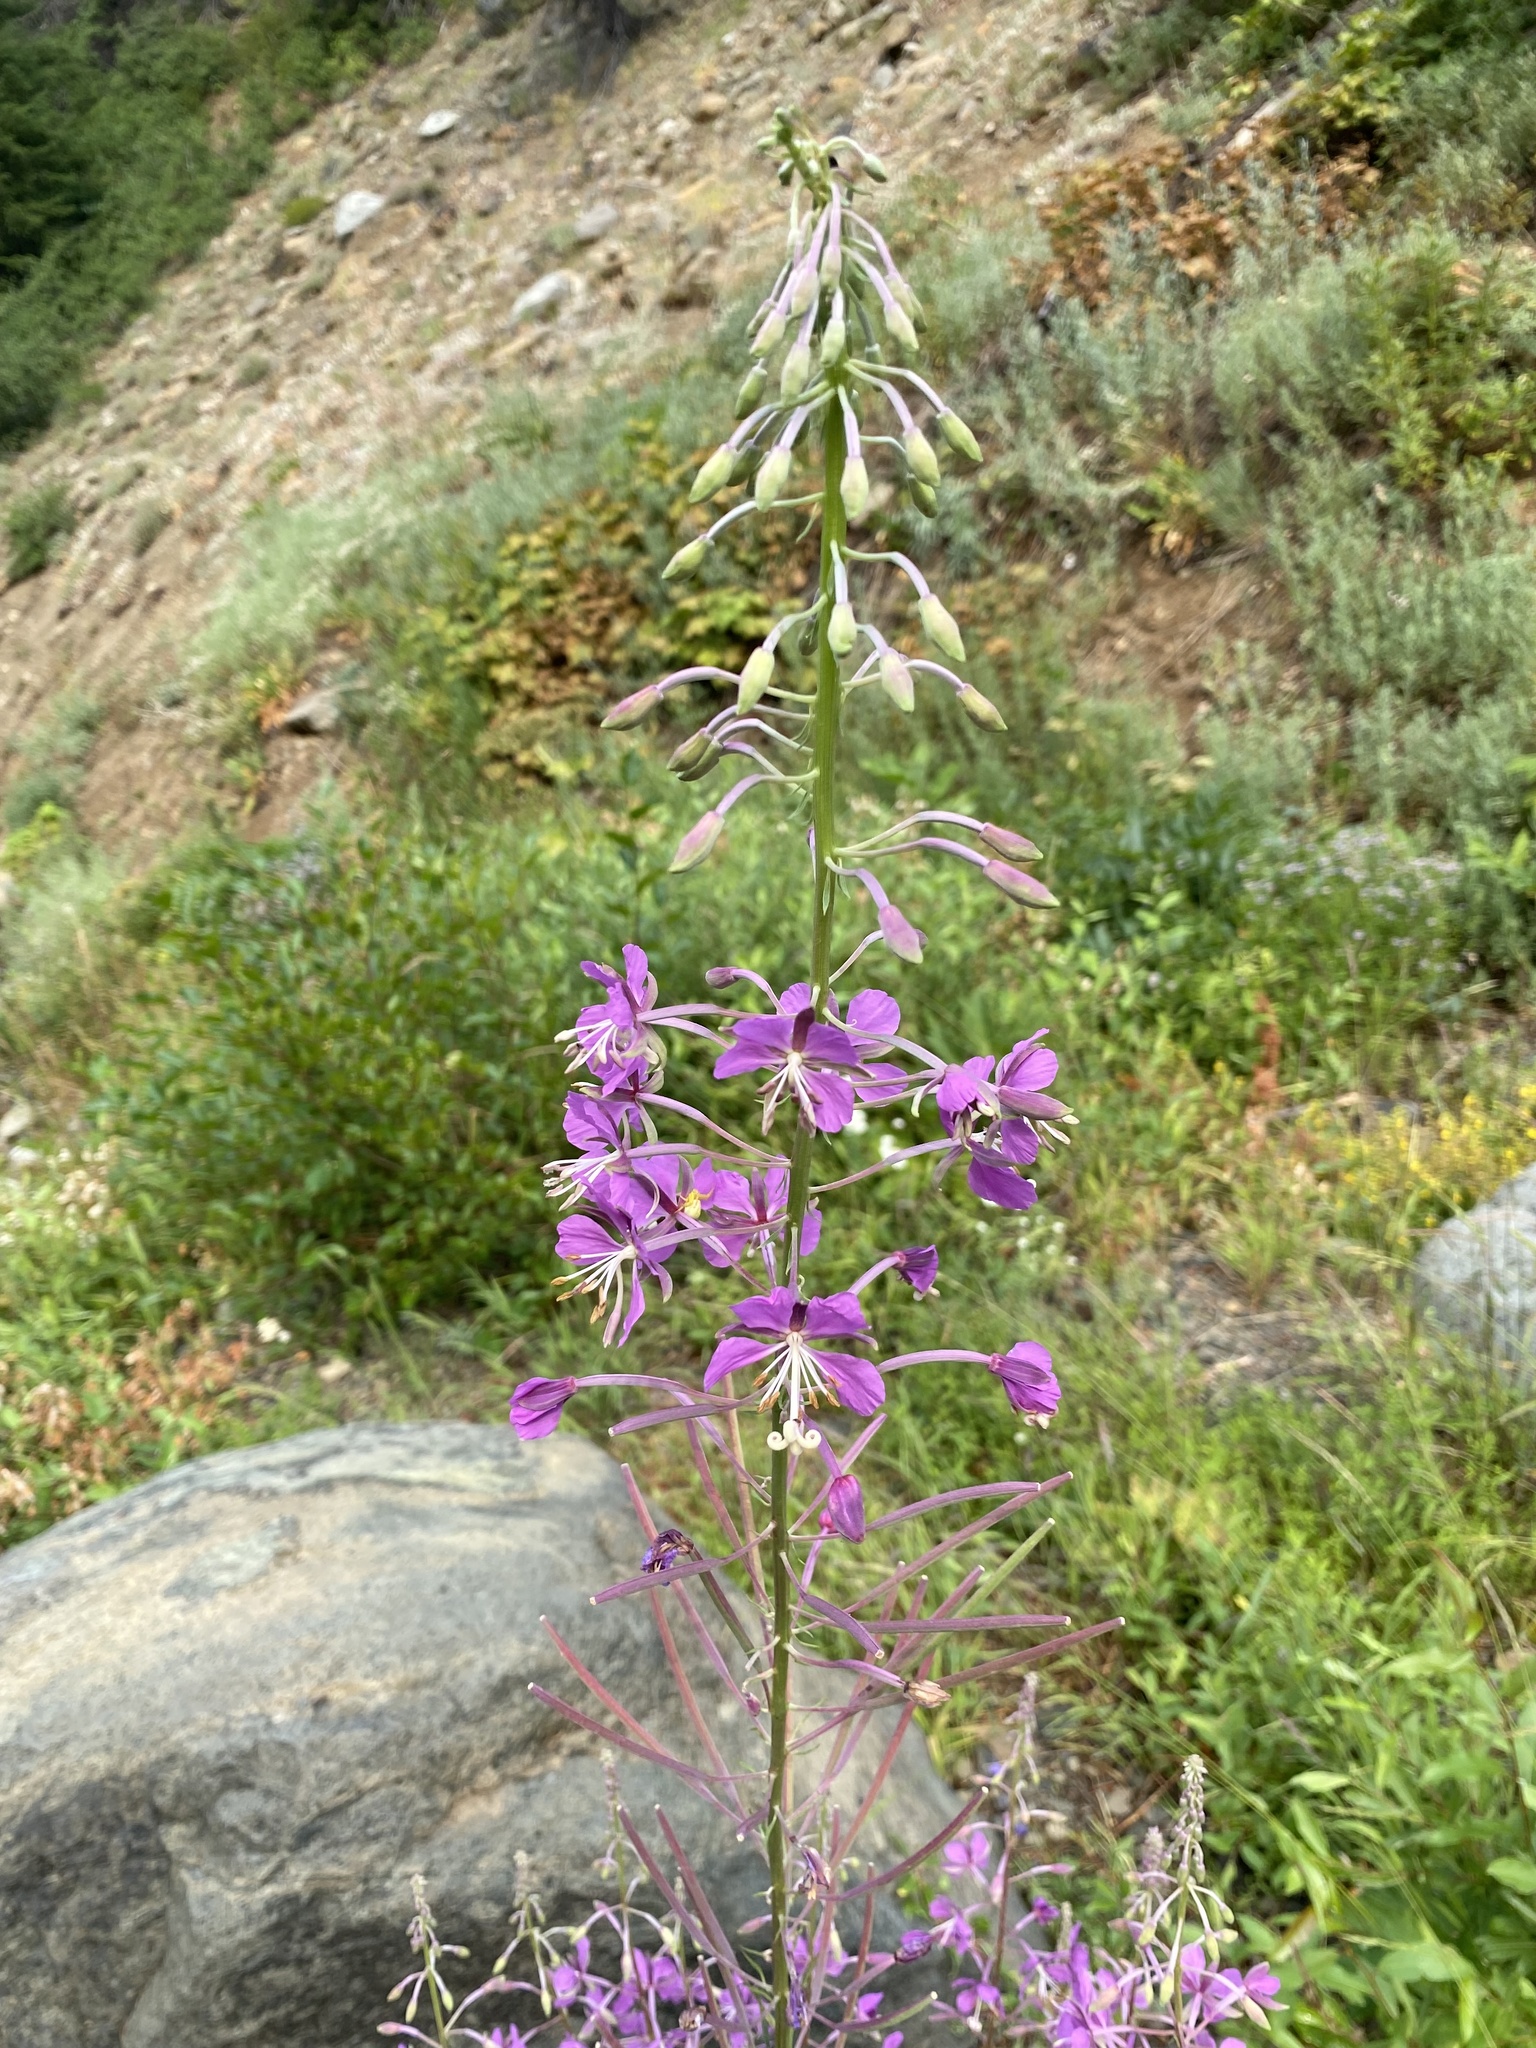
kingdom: Plantae
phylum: Tracheophyta
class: Magnoliopsida
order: Myrtales
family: Onagraceae
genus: Chamaenerion
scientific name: Chamaenerion angustifolium
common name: Fireweed
